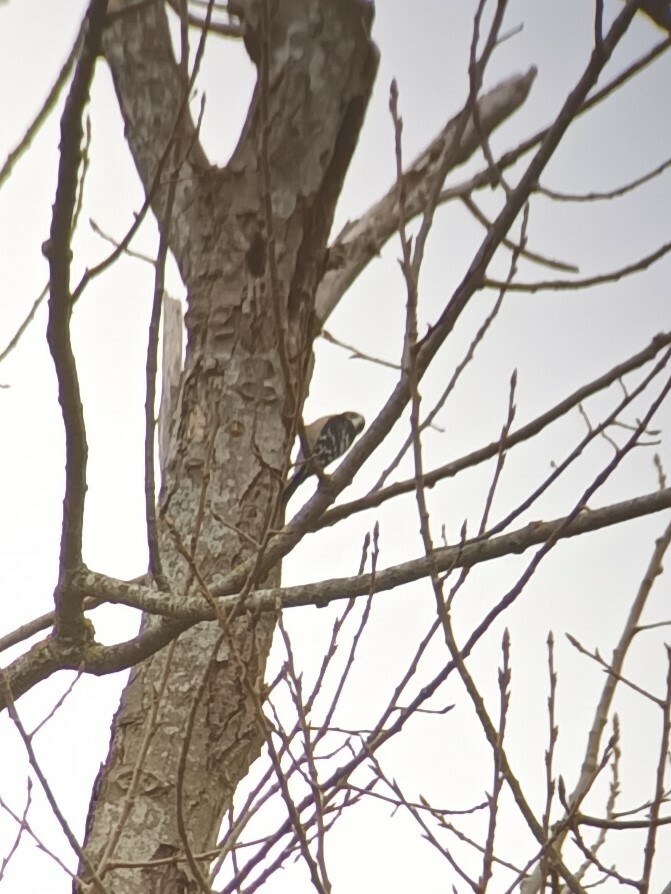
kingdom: Animalia
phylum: Chordata
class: Aves
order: Piciformes
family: Picidae
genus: Dryobates
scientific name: Dryobates minor
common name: Lesser spotted woodpecker
